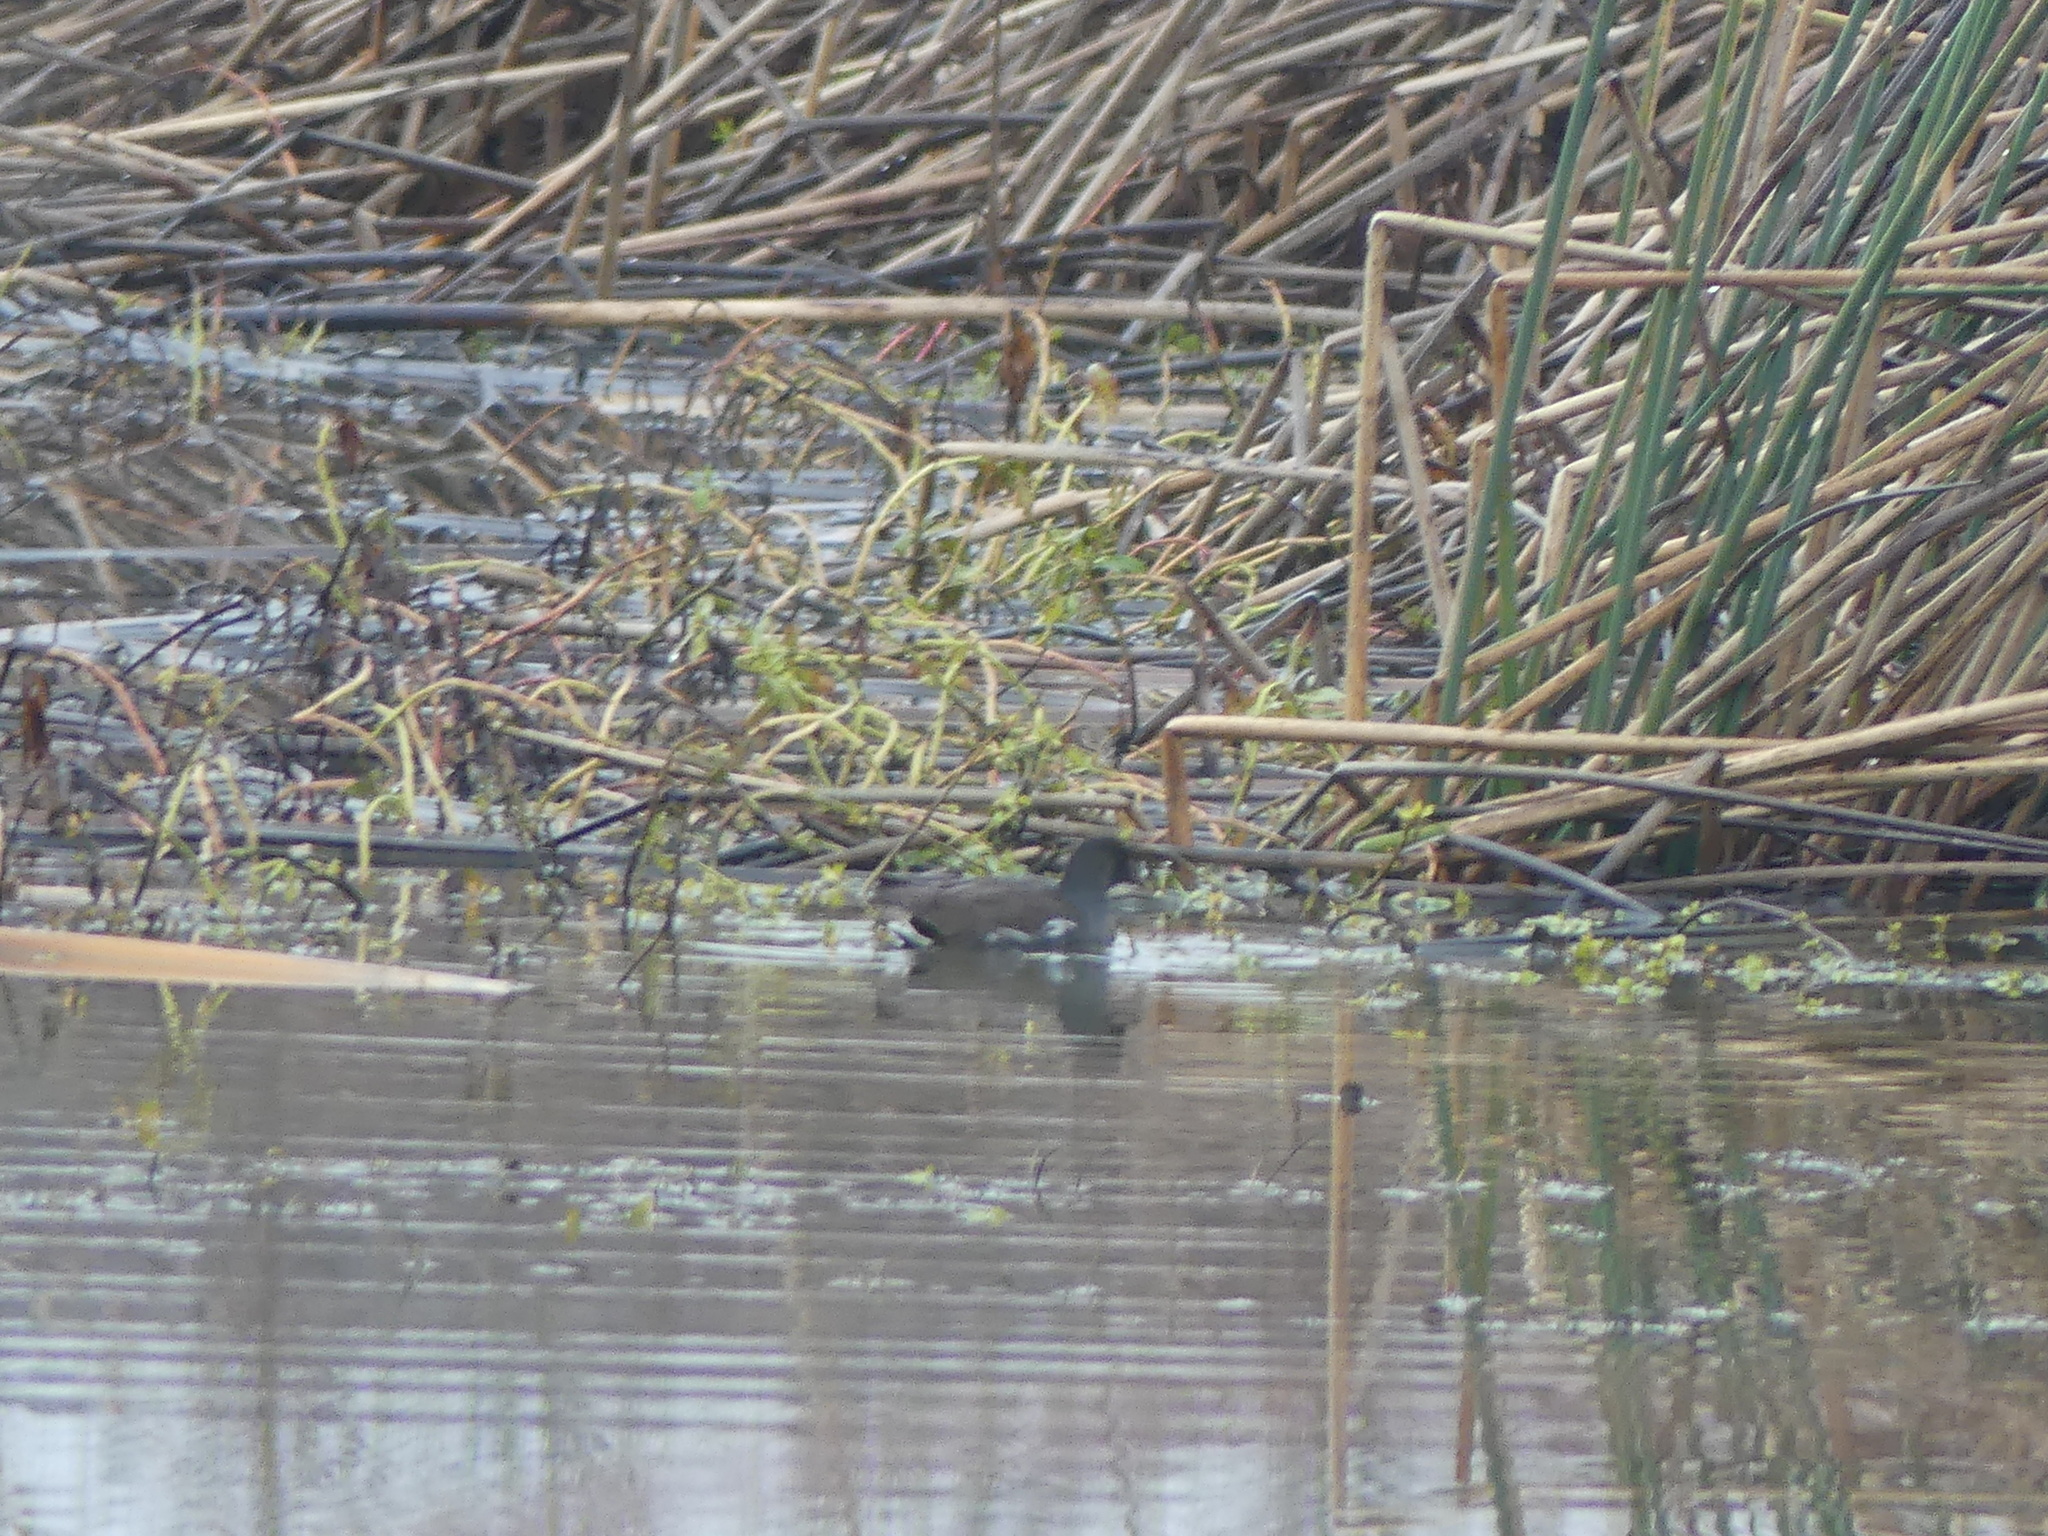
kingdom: Animalia
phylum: Chordata
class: Aves
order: Gruiformes
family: Rallidae
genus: Gallinula
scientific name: Gallinula chloropus
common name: Common moorhen
